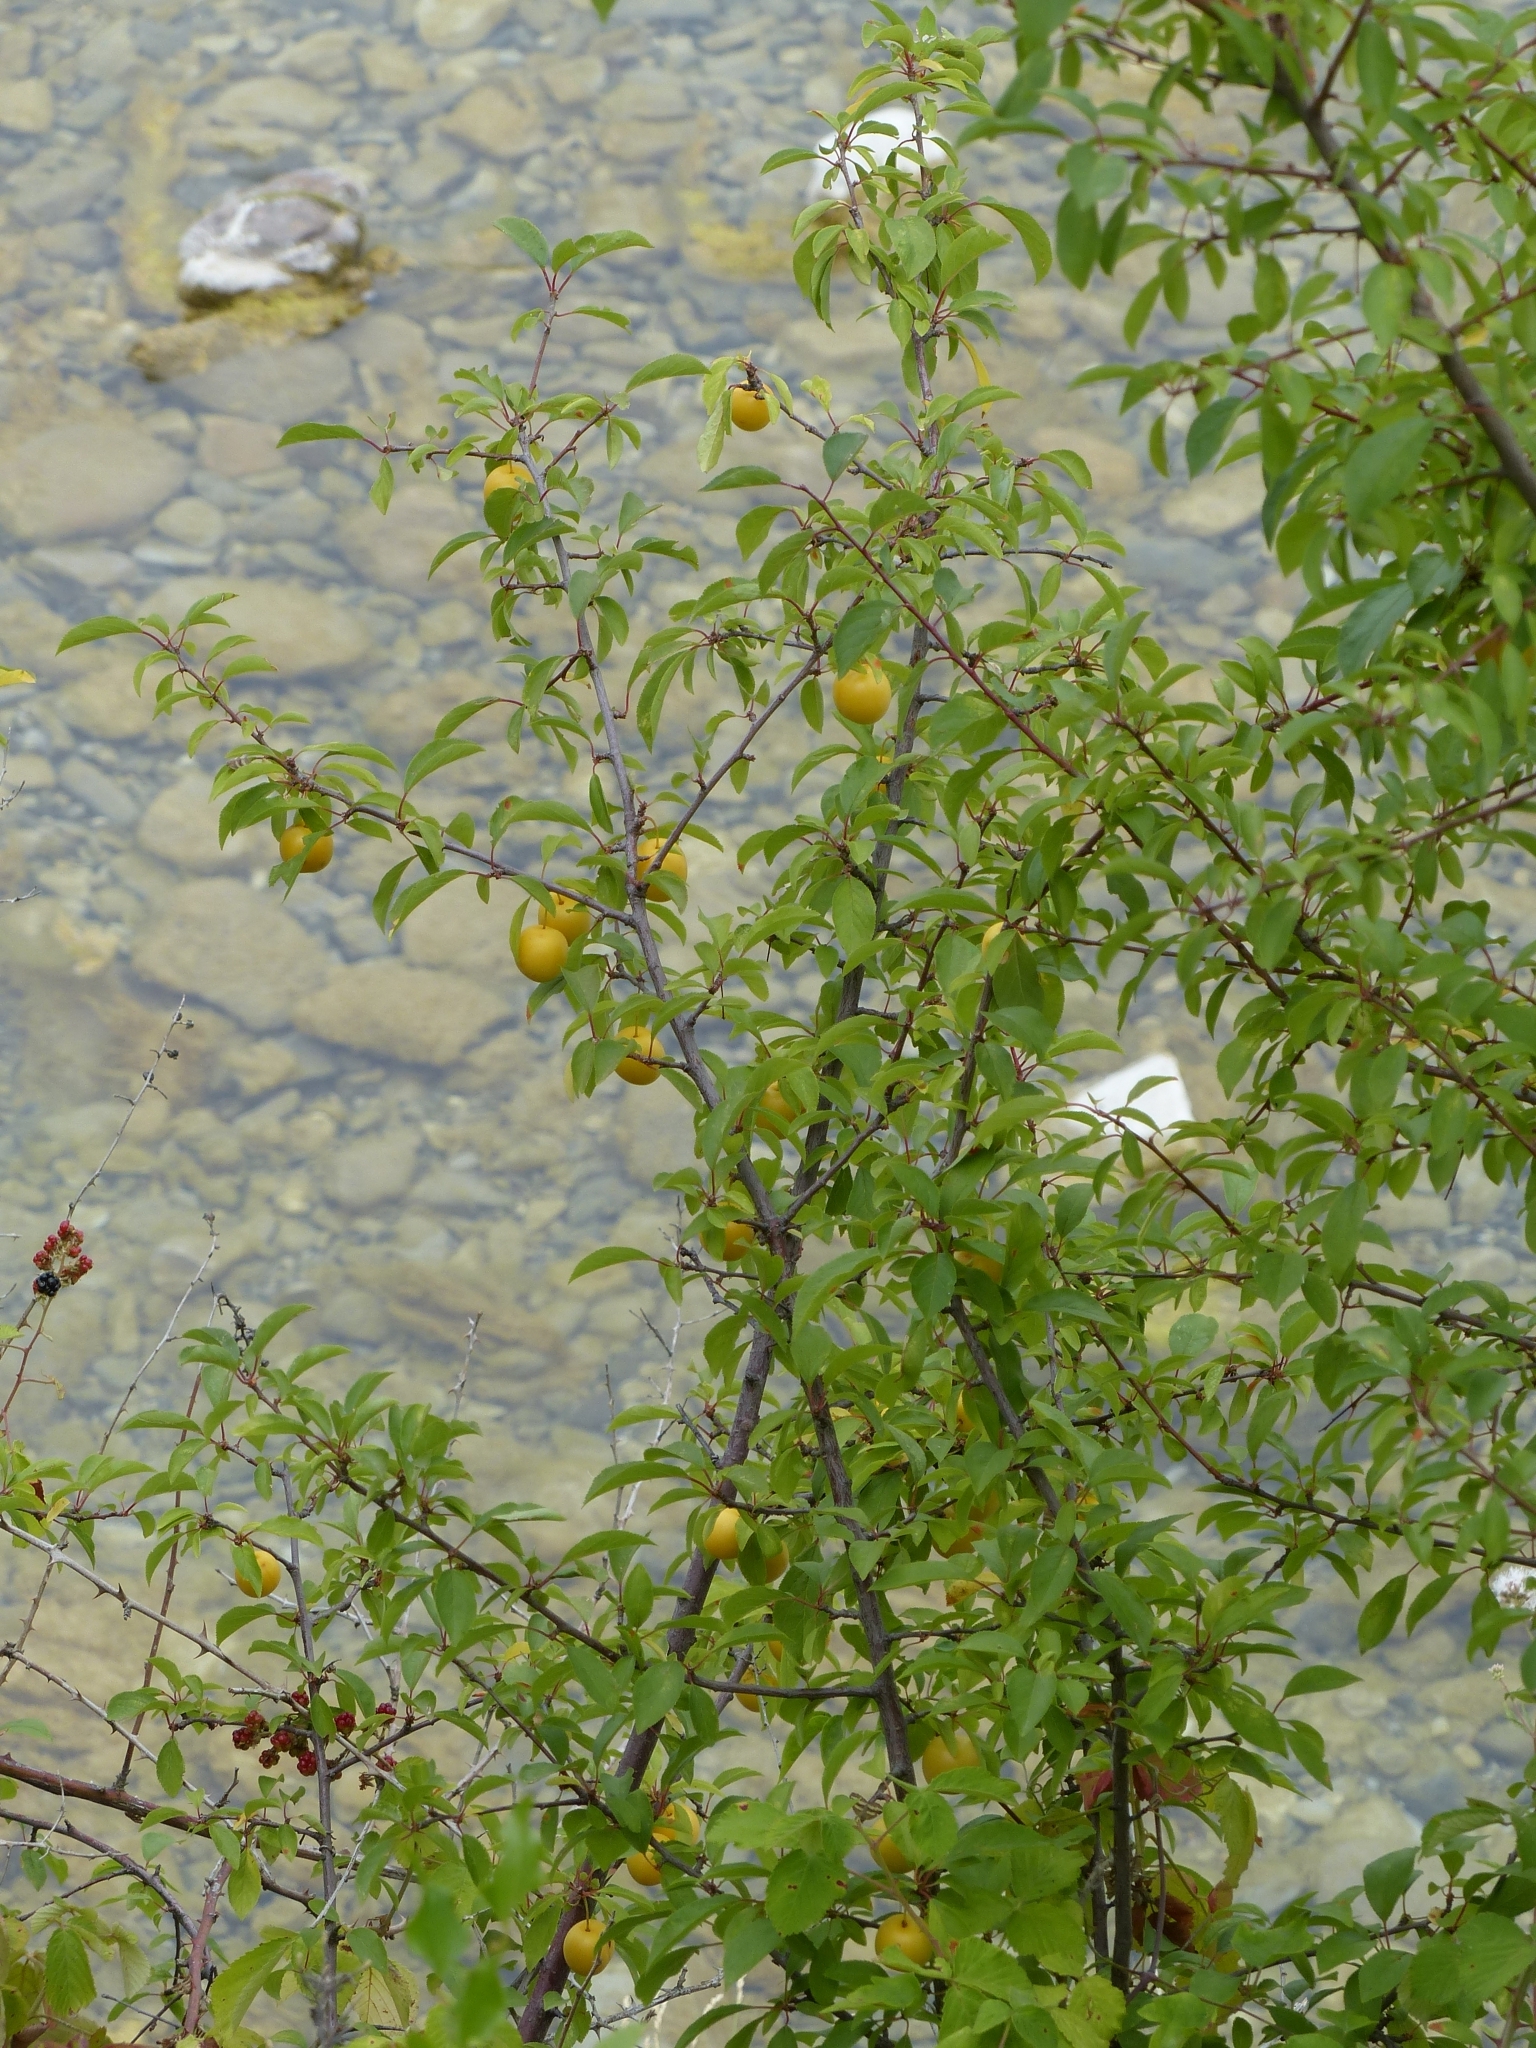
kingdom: Plantae
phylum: Tracheophyta
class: Magnoliopsida
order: Rosales
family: Rosaceae
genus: Prunus
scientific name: Prunus cerasifera
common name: Cherry plum
